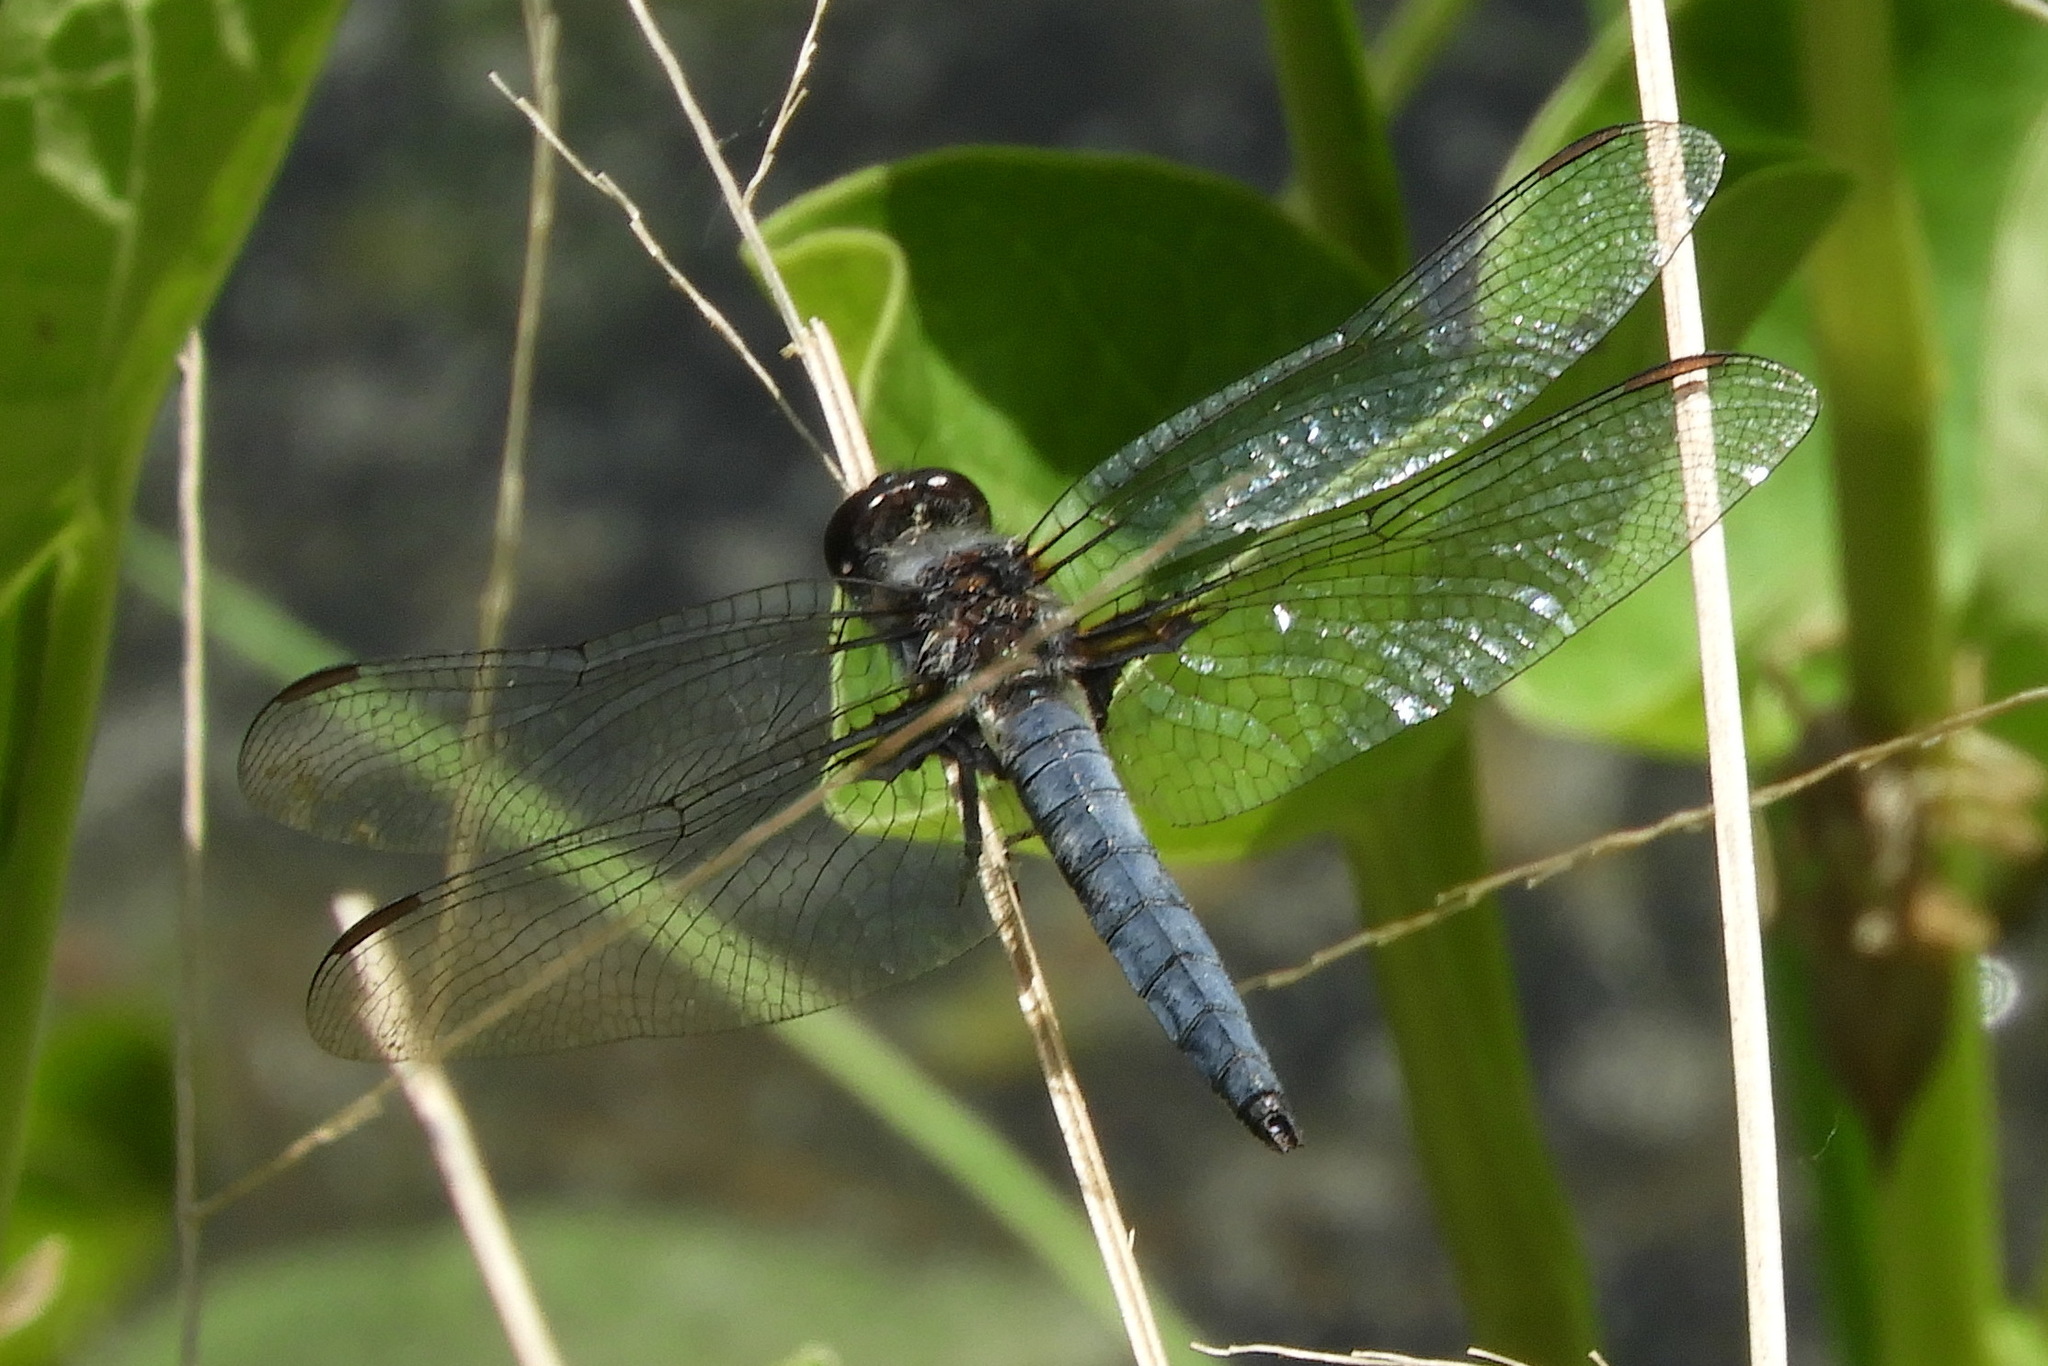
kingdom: Animalia
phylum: Arthropoda
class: Insecta
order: Odonata
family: Libellulidae
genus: Ladona
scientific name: Ladona deplanata
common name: Blue corporal
